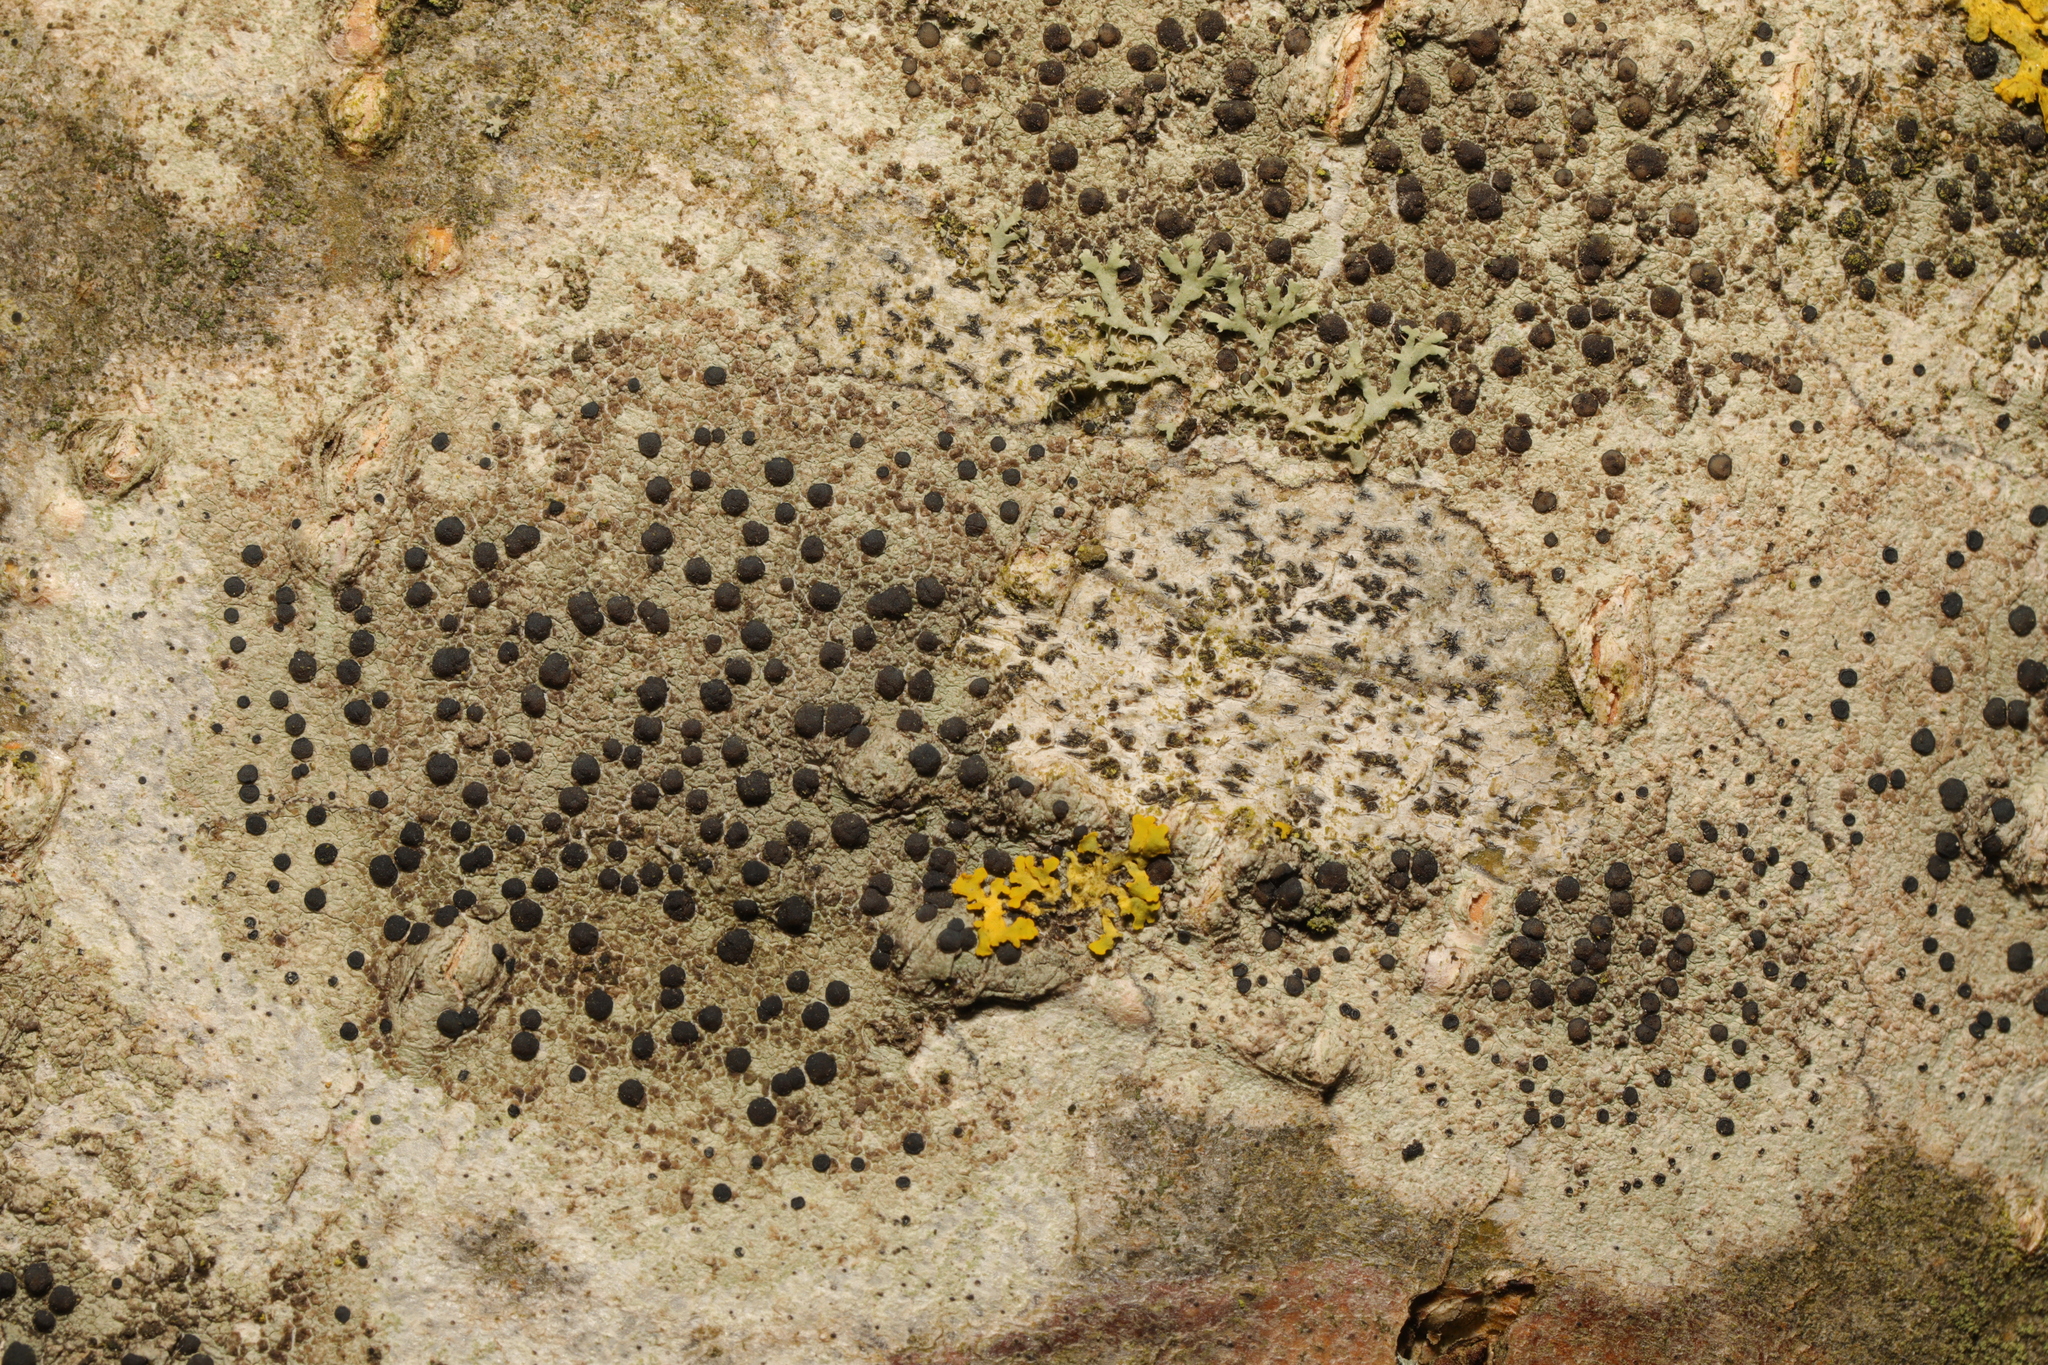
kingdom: Fungi
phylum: Ascomycota
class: Lecanoromycetes
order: Lecanorales
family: Lecanoraceae
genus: Lecidella
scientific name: Lecidella elaeochroma
